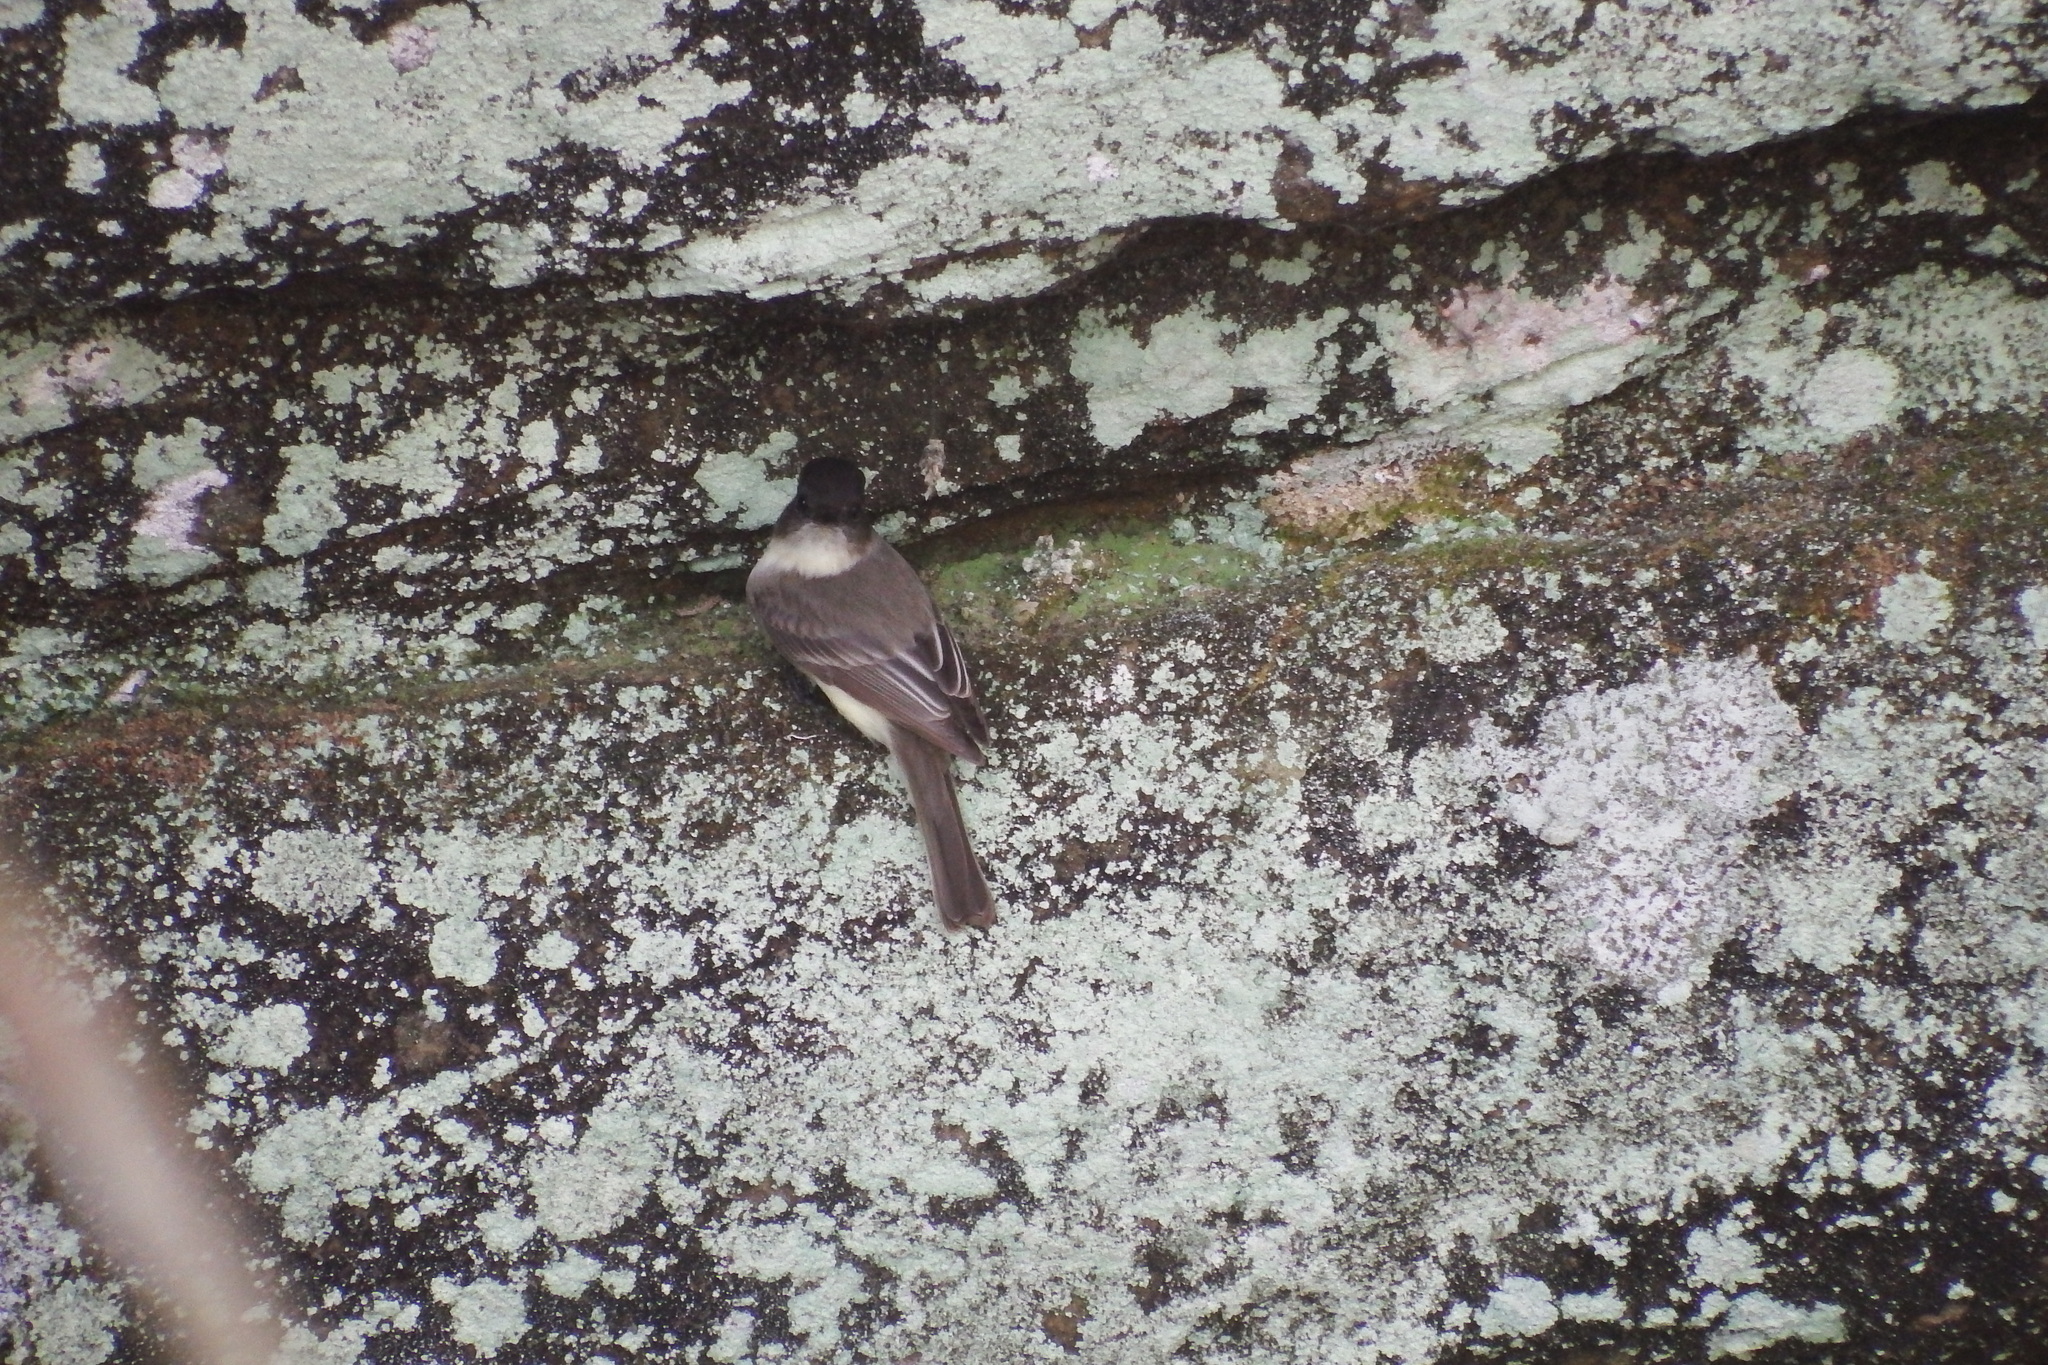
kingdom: Animalia
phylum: Chordata
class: Aves
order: Passeriformes
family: Tyrannidae
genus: Sayornis
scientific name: Sayornis phoebe
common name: Eastern phoebe
